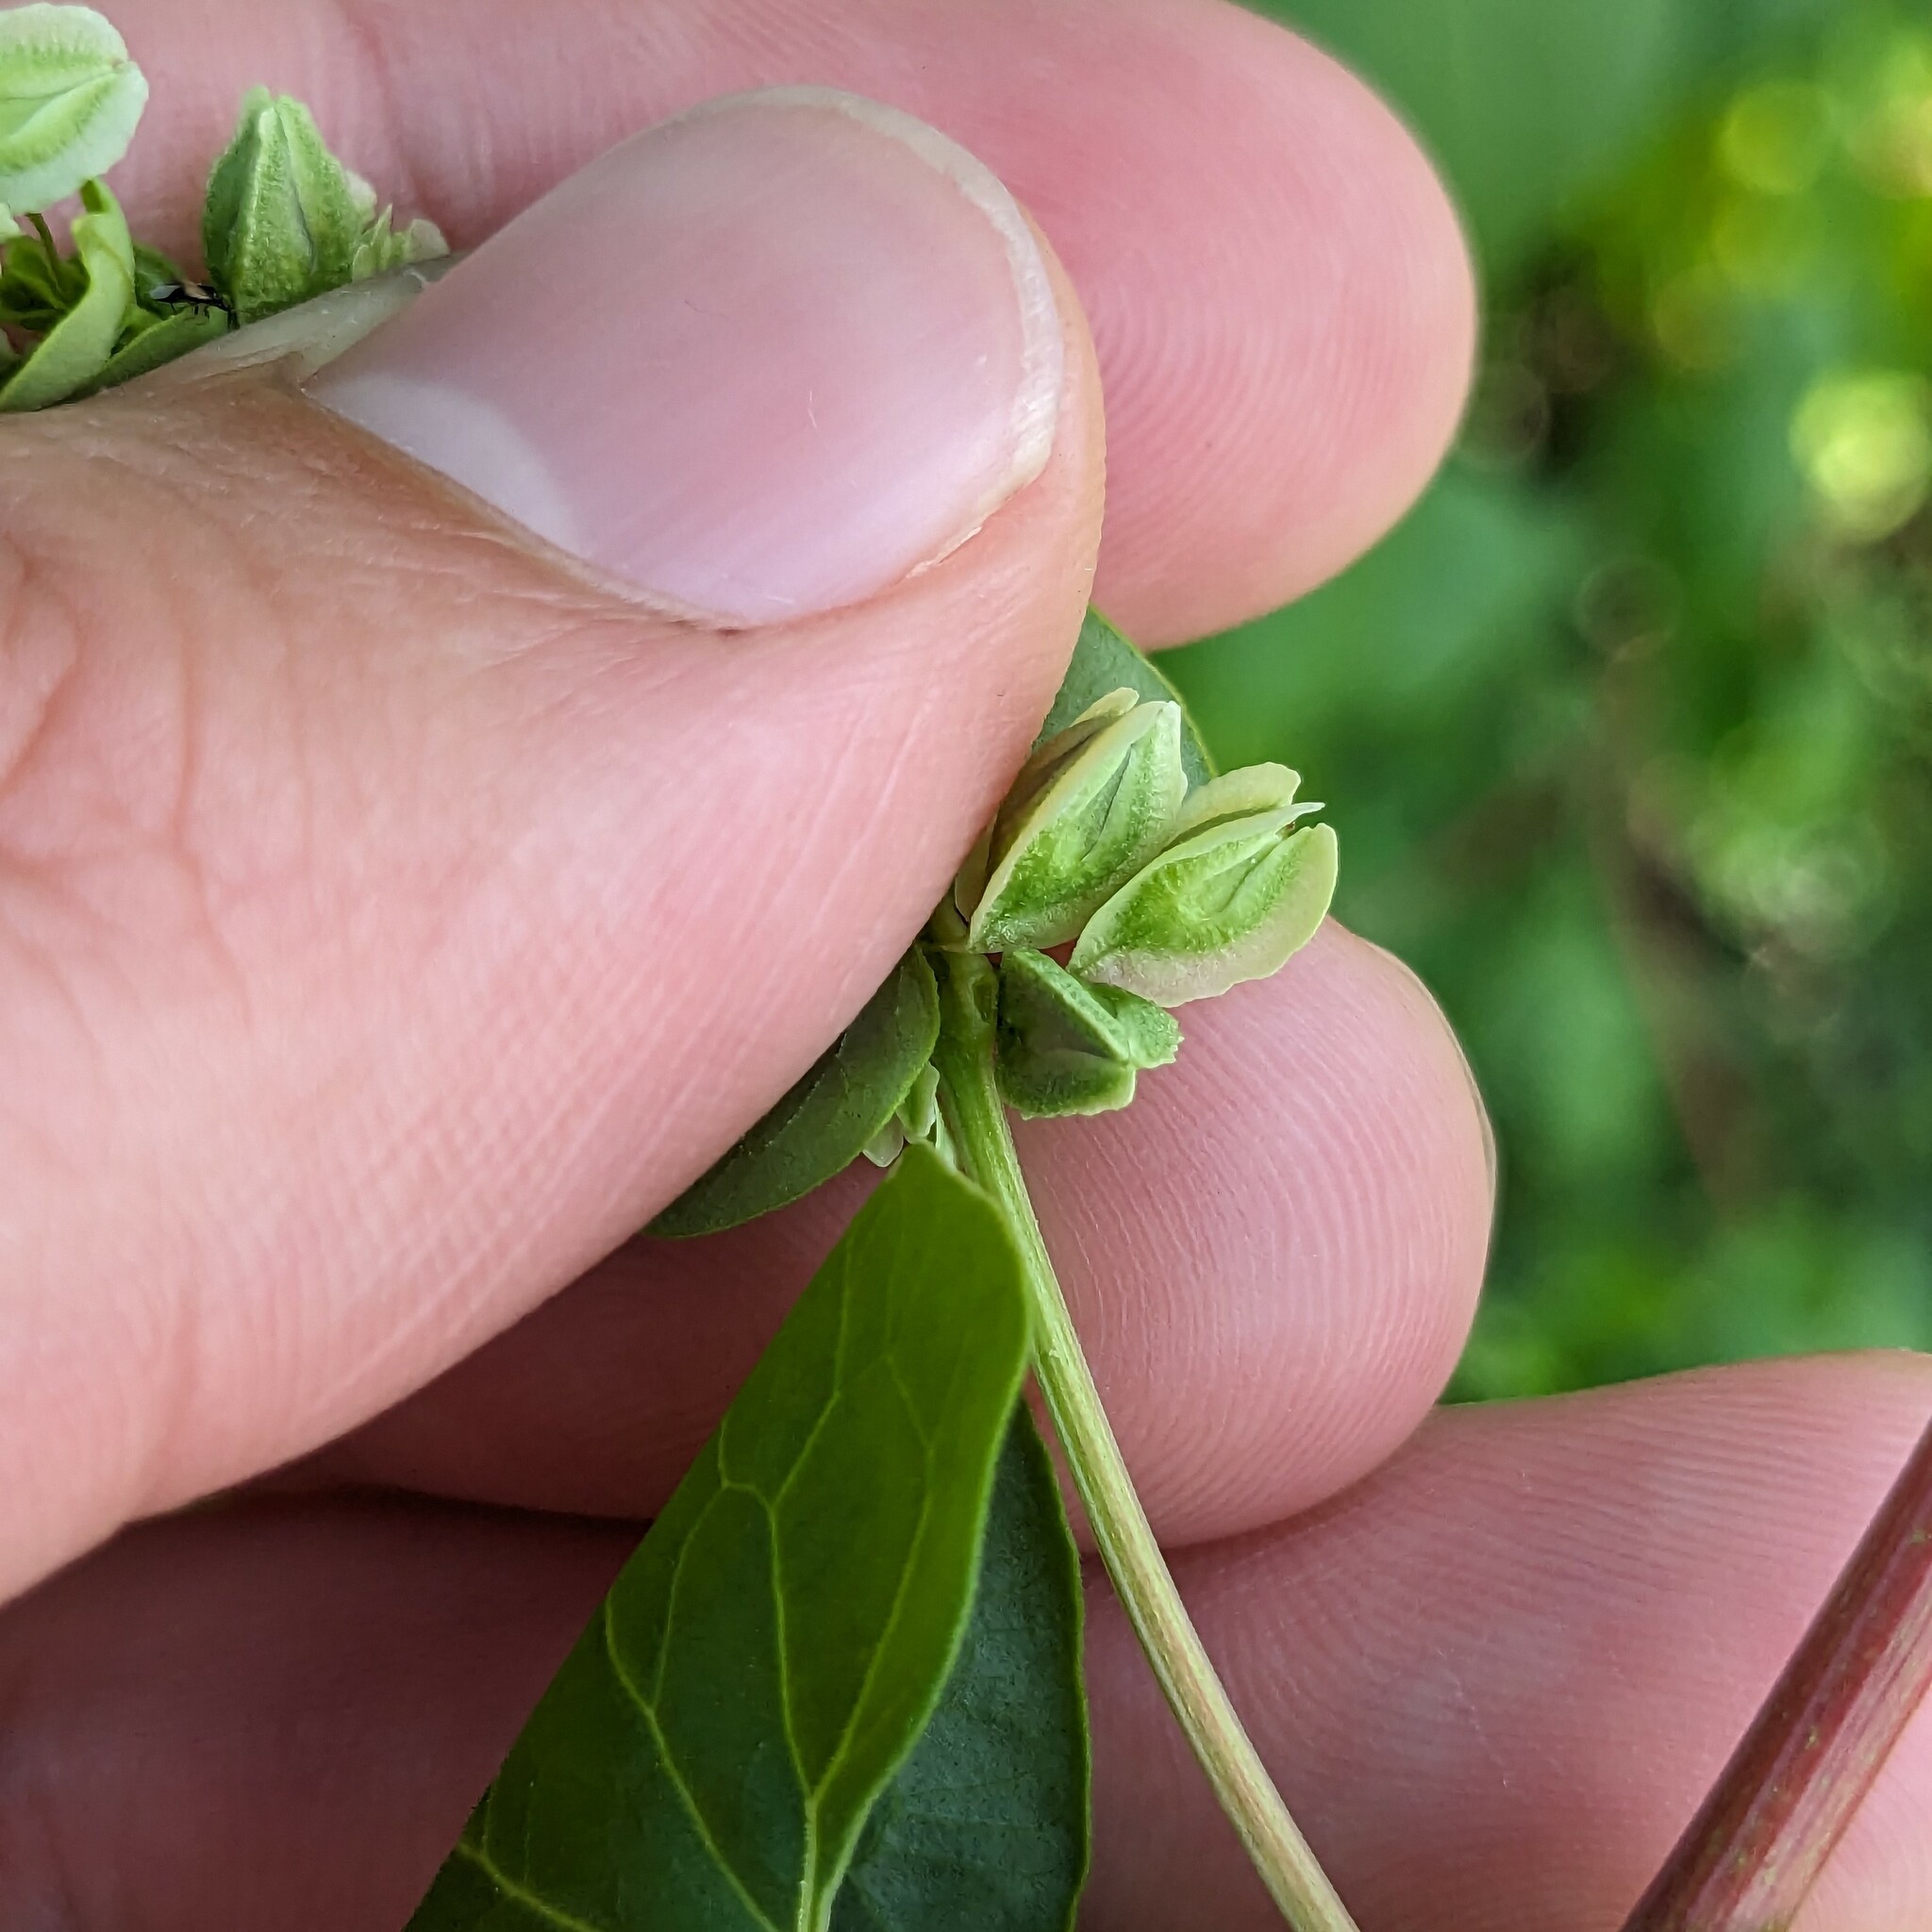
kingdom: Plantae
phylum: Tracheophyta
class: Magnoliopsida
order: Caryophyllales
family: Polygonaceae
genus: Fallopia
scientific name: Fallopia scandens
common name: Climbing false buckwheat
